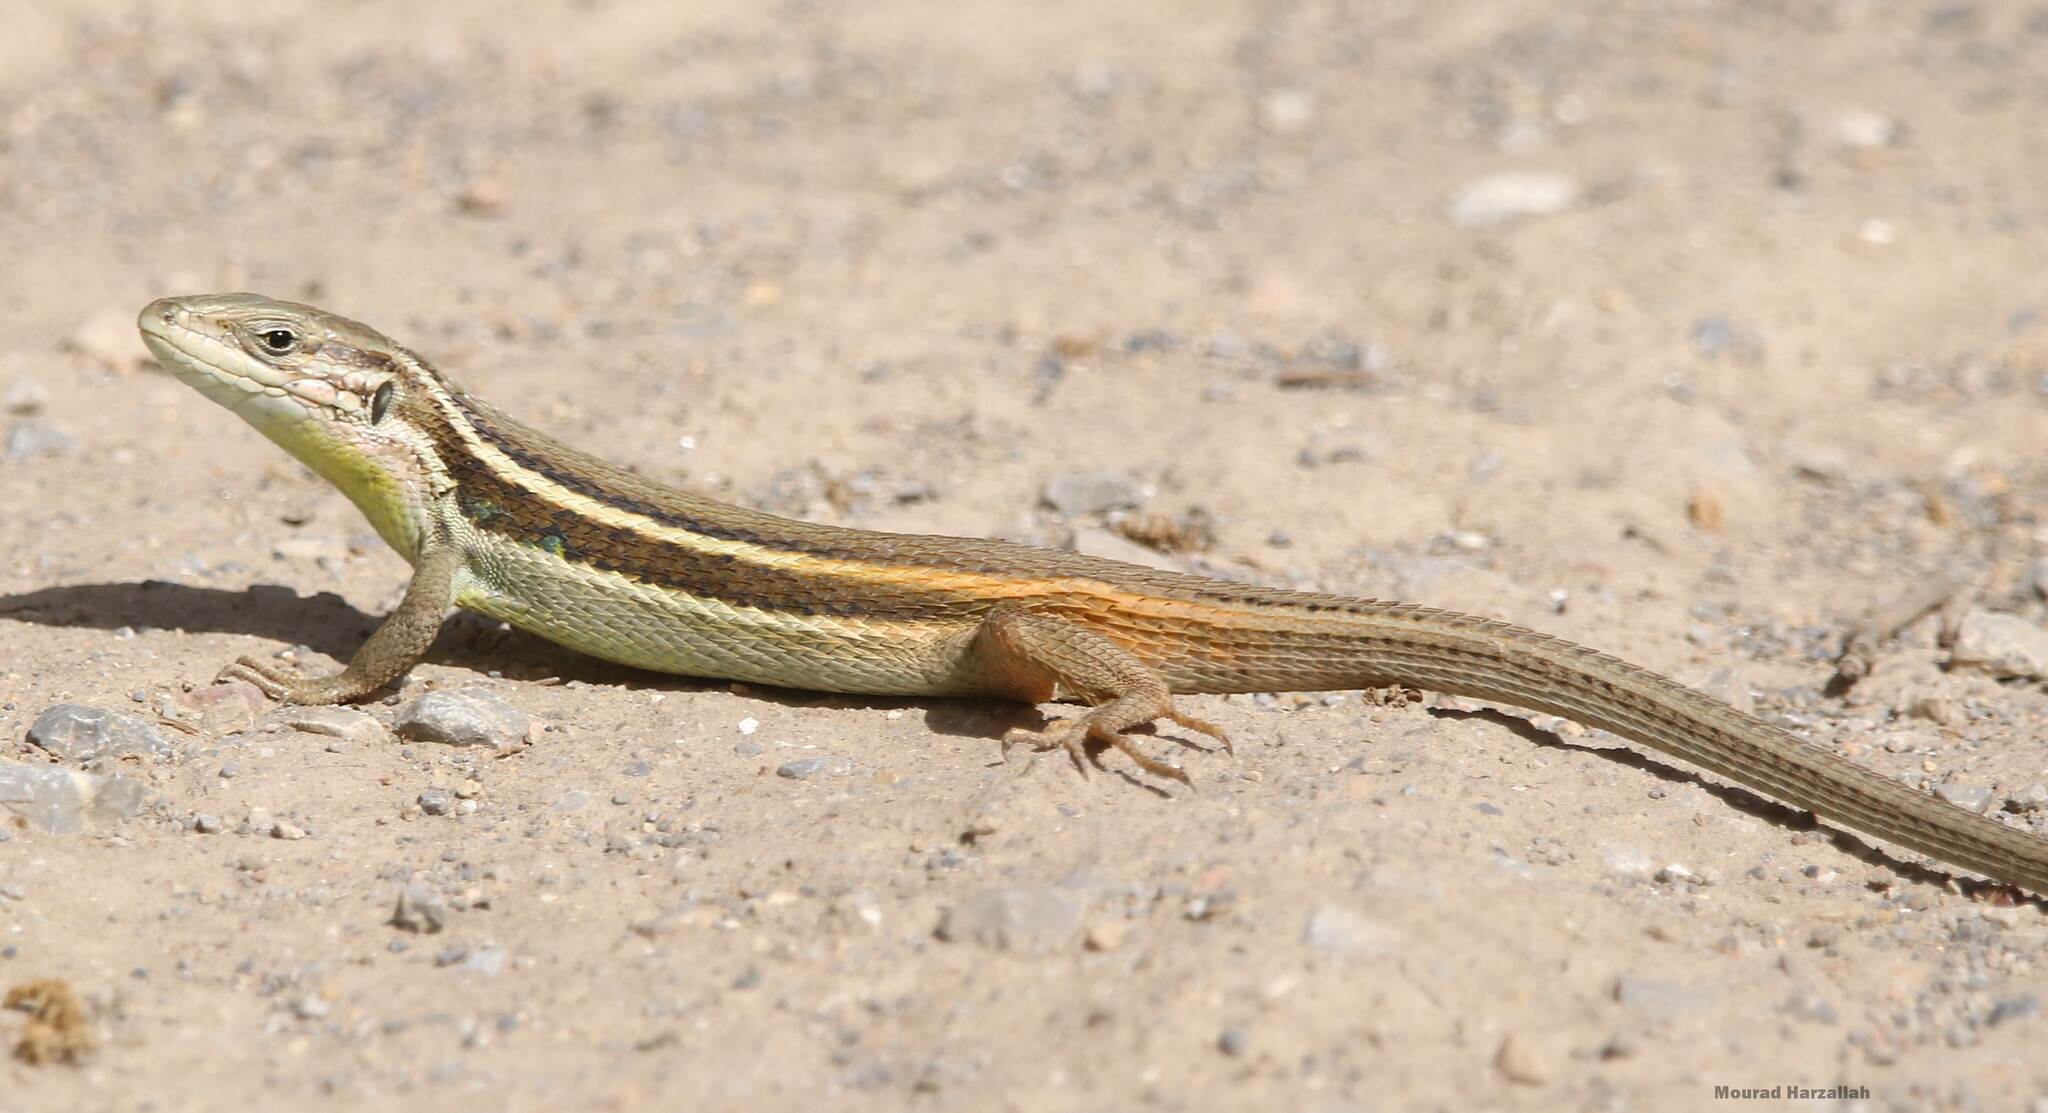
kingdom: Animalia
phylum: Chordata
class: Squamata
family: Lacertidae
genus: Psammodromus
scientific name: Psammodromus algirus
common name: Algerian psammodromus
